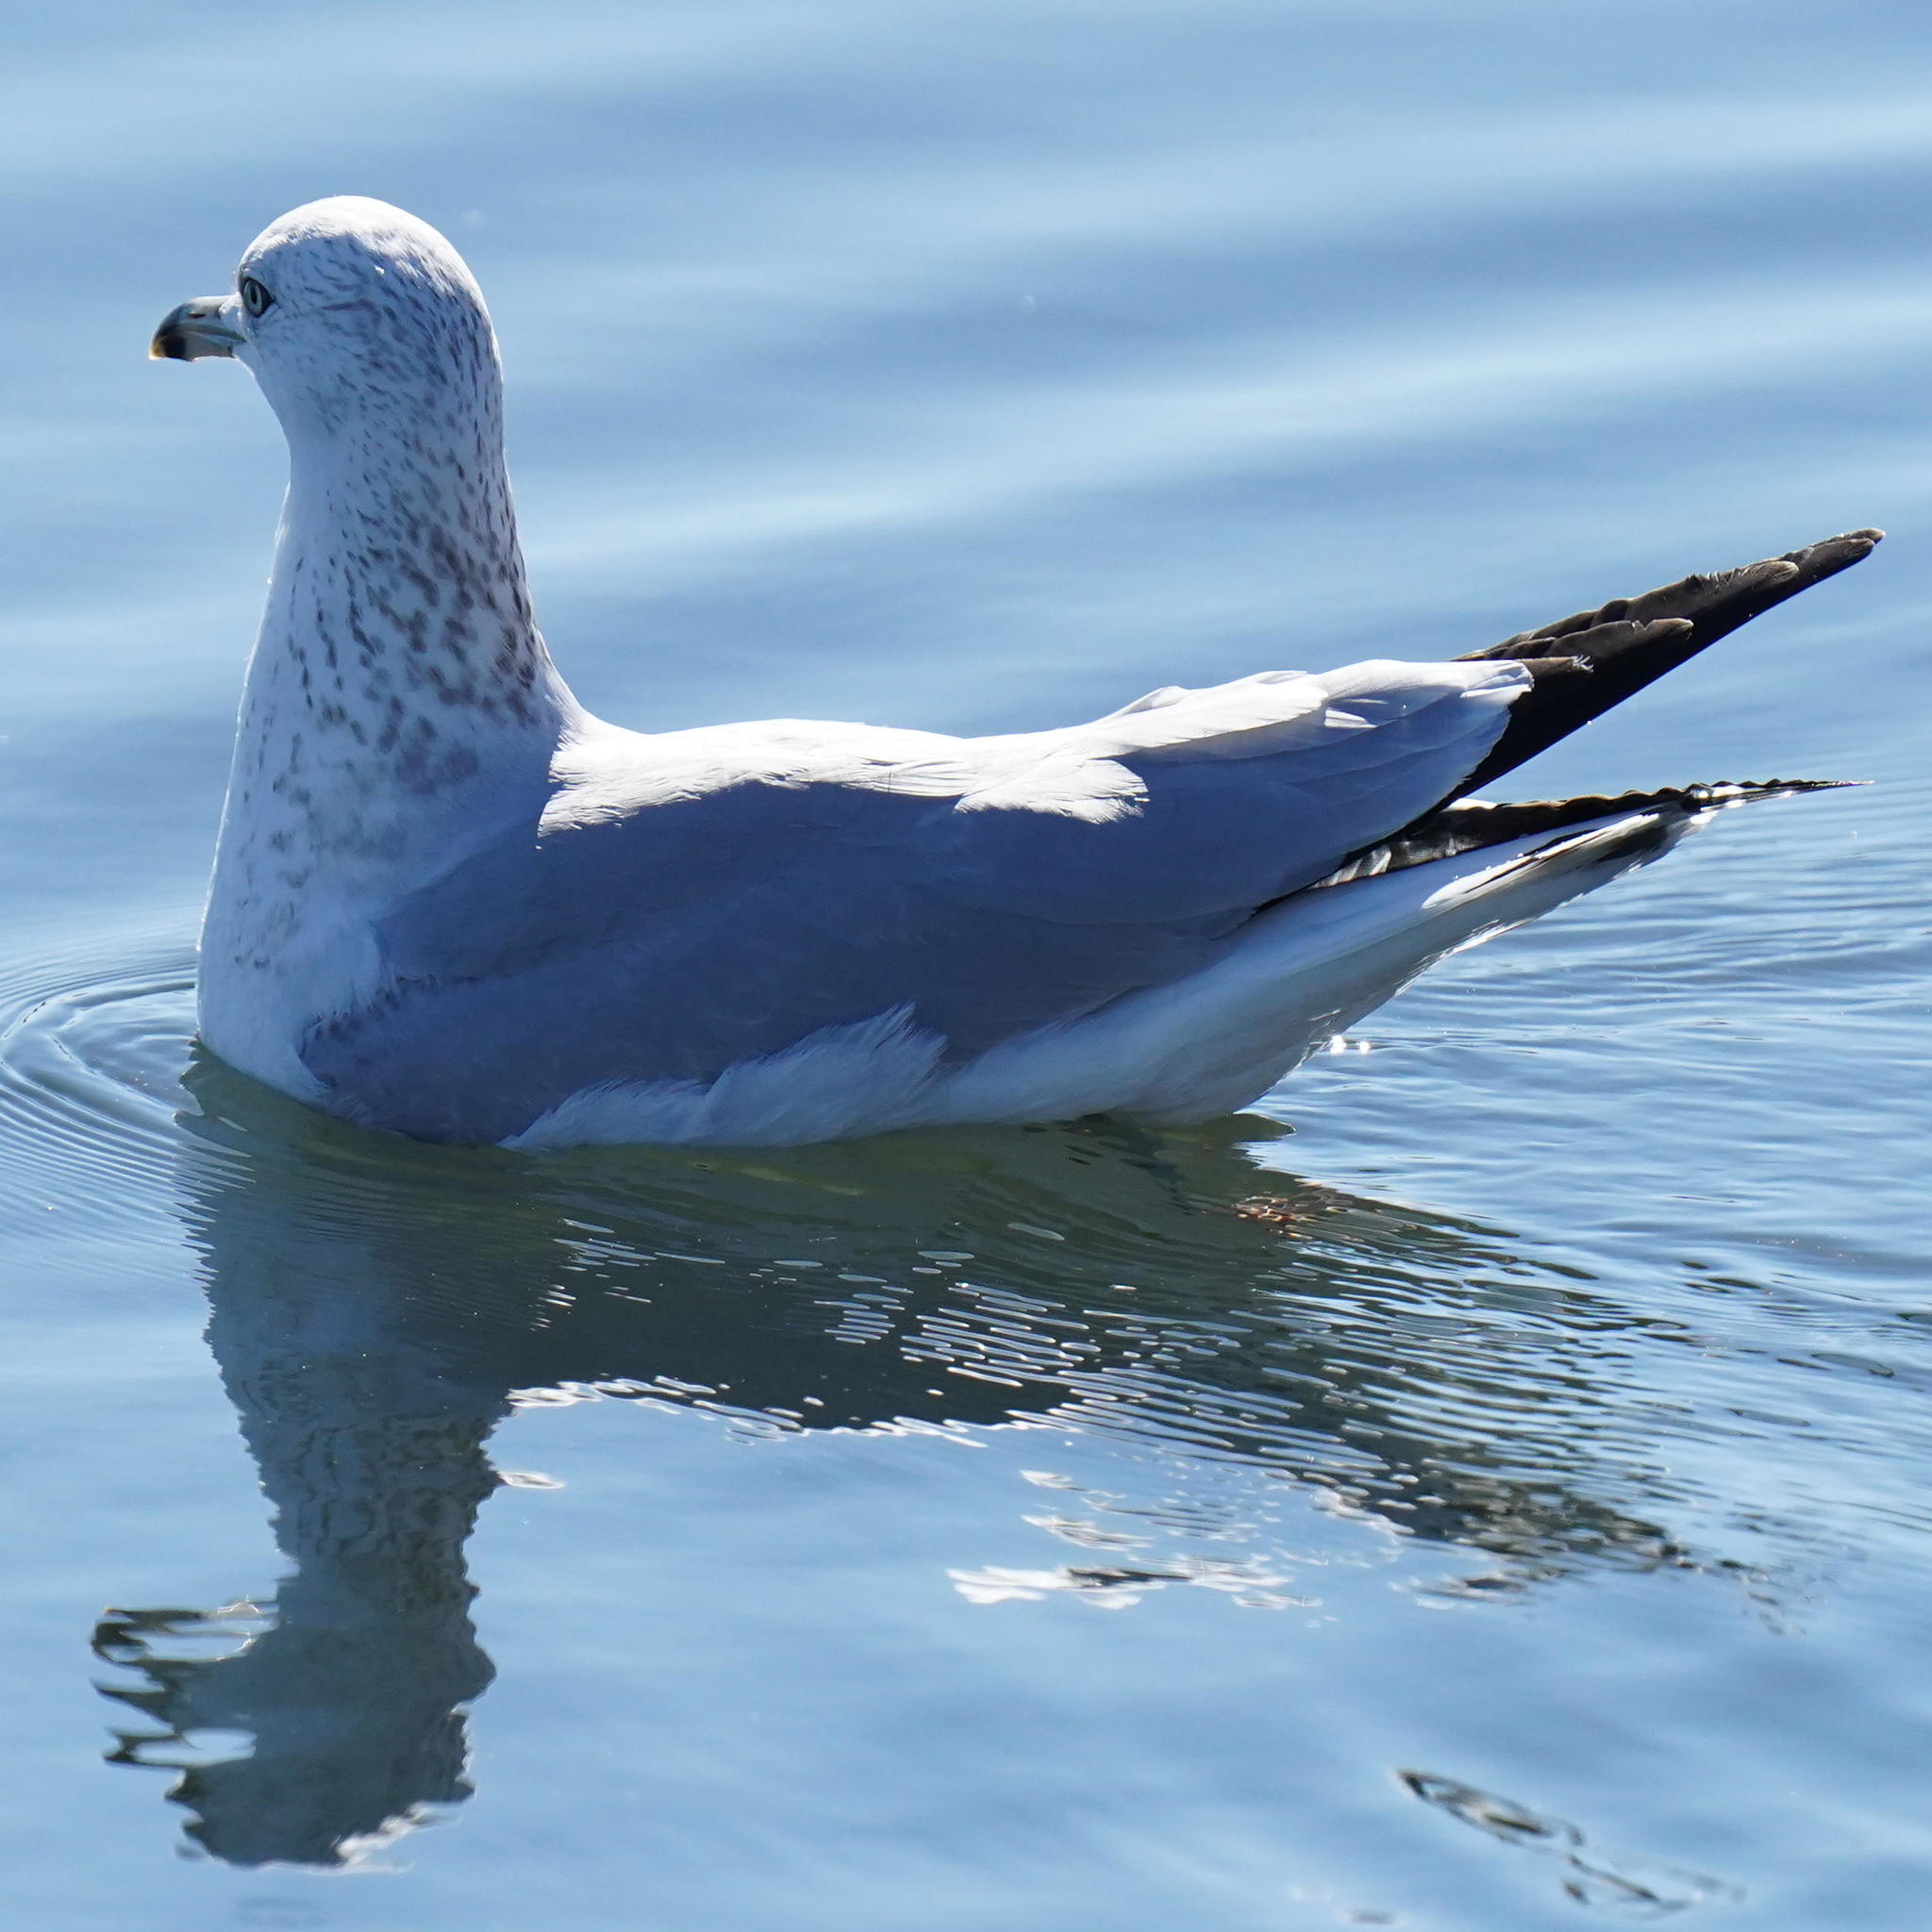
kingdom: Animalia
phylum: Chordata
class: Aves
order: Charadriiformes
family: Laridae
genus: Larus
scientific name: Larus delawarensis
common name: Ring-billed gull
